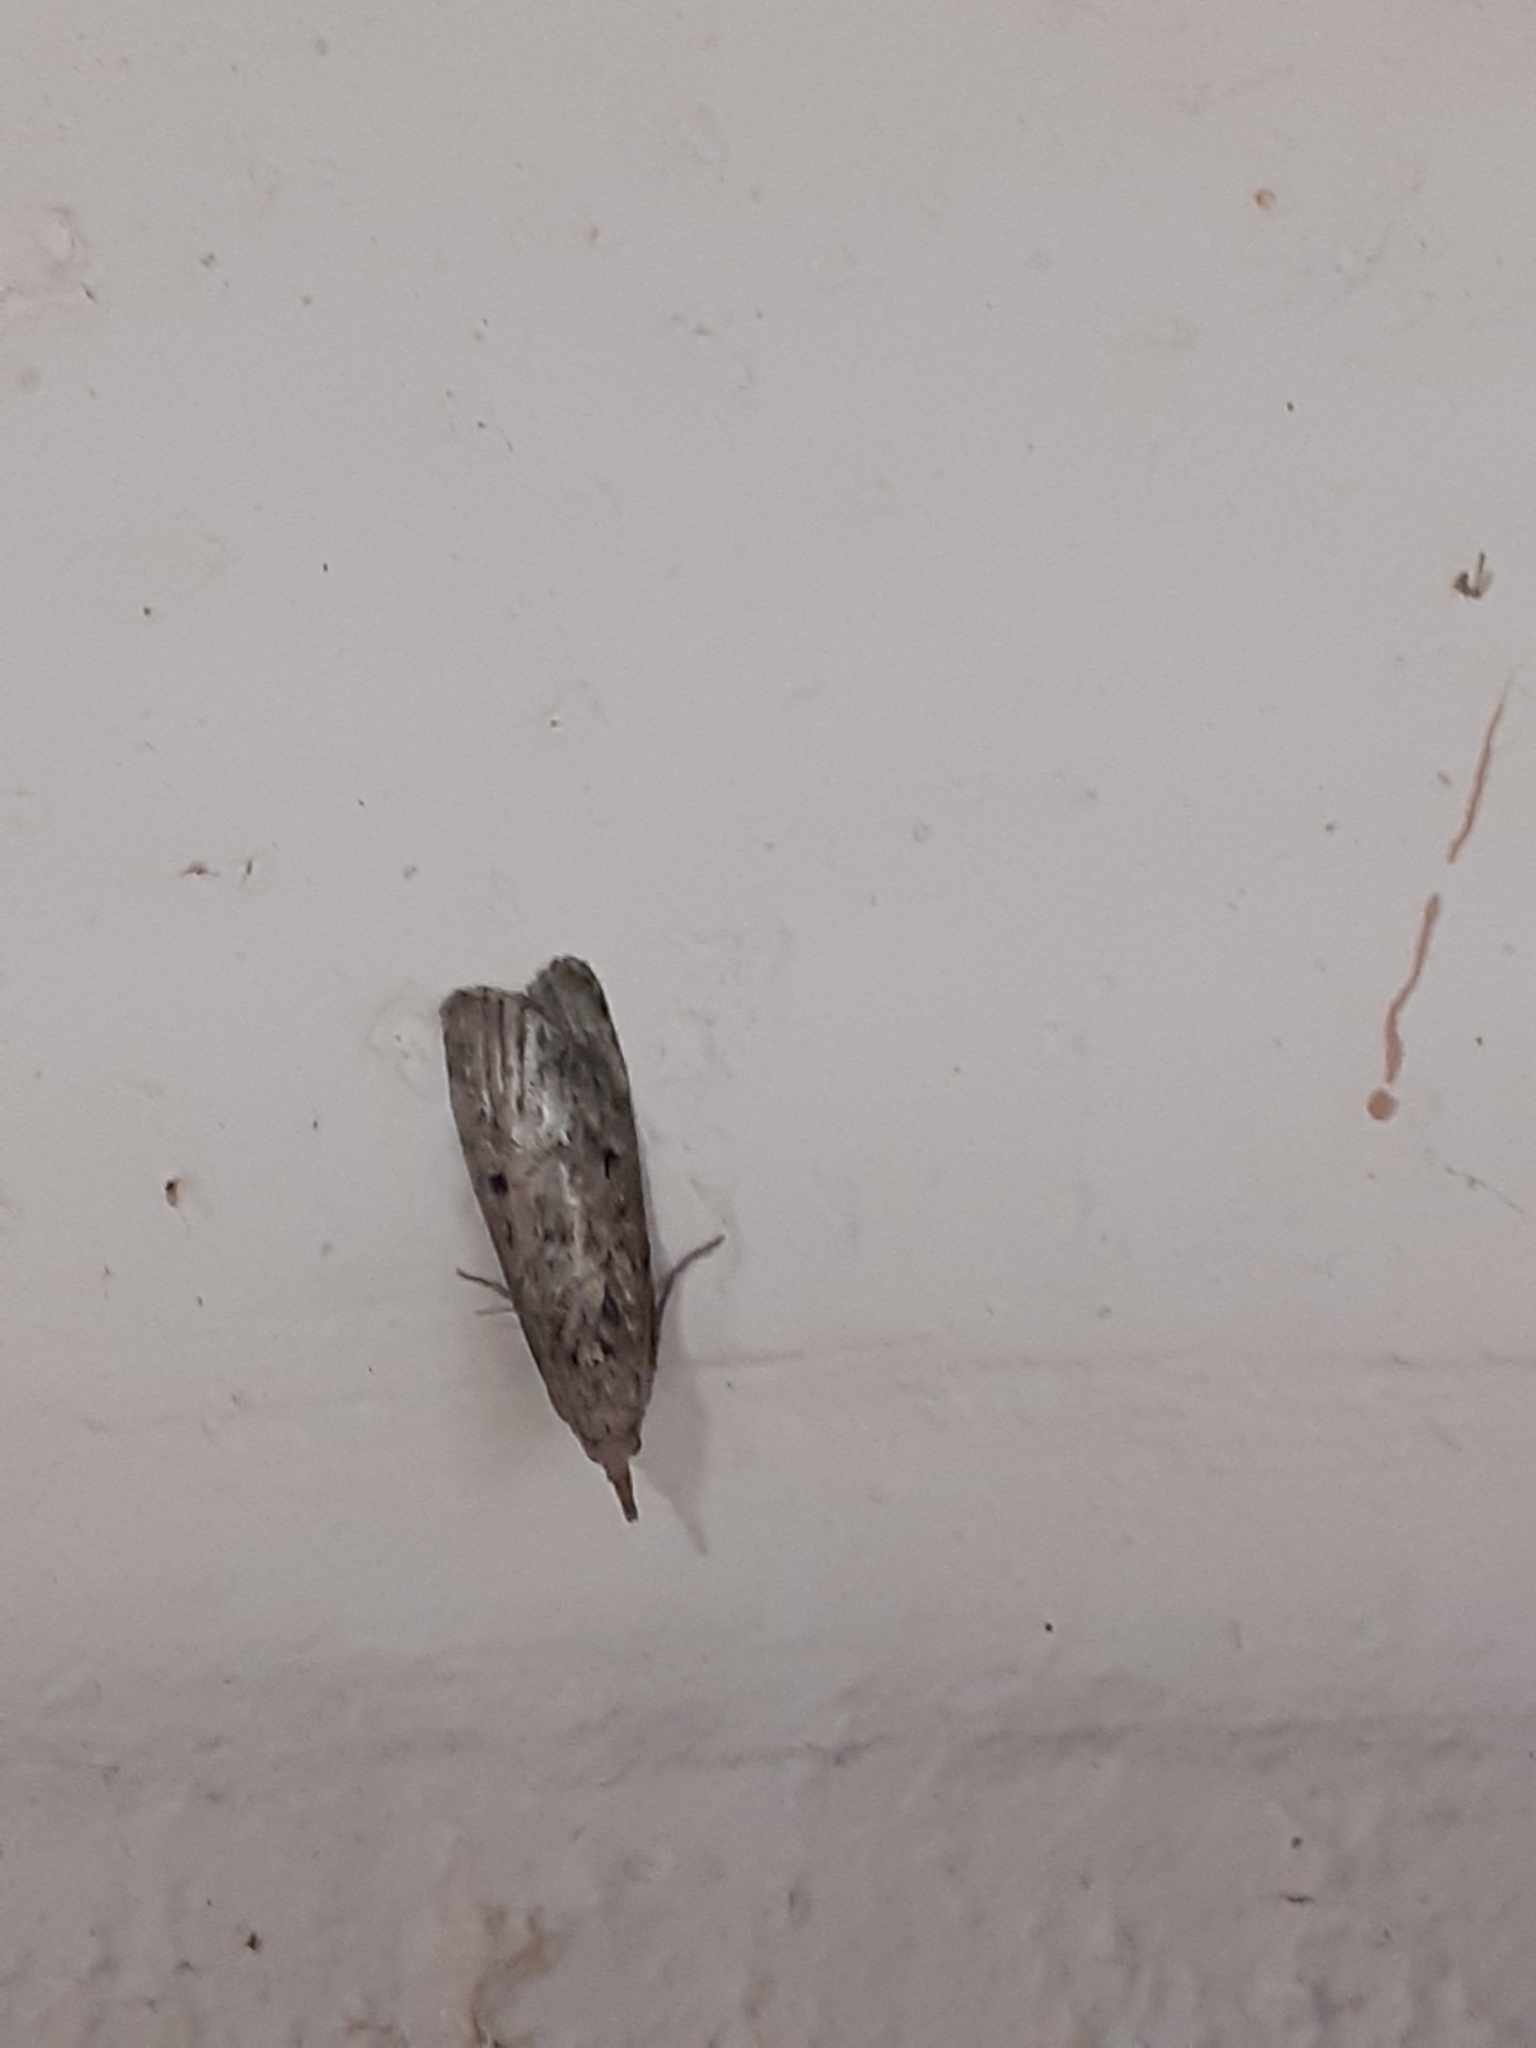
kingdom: Animalia
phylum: Arthropoda
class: Insecta
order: Lepidoptera
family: Pyralidae
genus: Aphomia
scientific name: Aphomia sociella
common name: Bee moth
